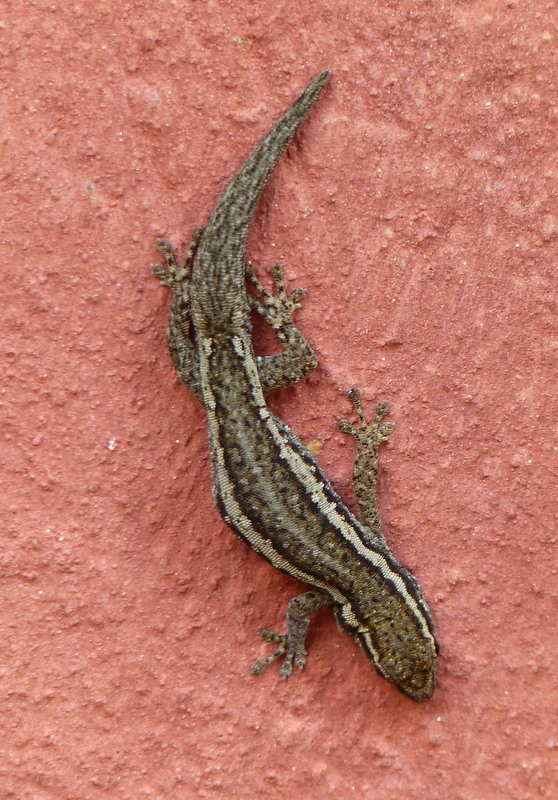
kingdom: Animalia
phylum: Chordata
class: Squamata
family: Gekkonidae
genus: Lygodactylus
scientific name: Lygodactylus capensis
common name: Cape dwarf gecko
